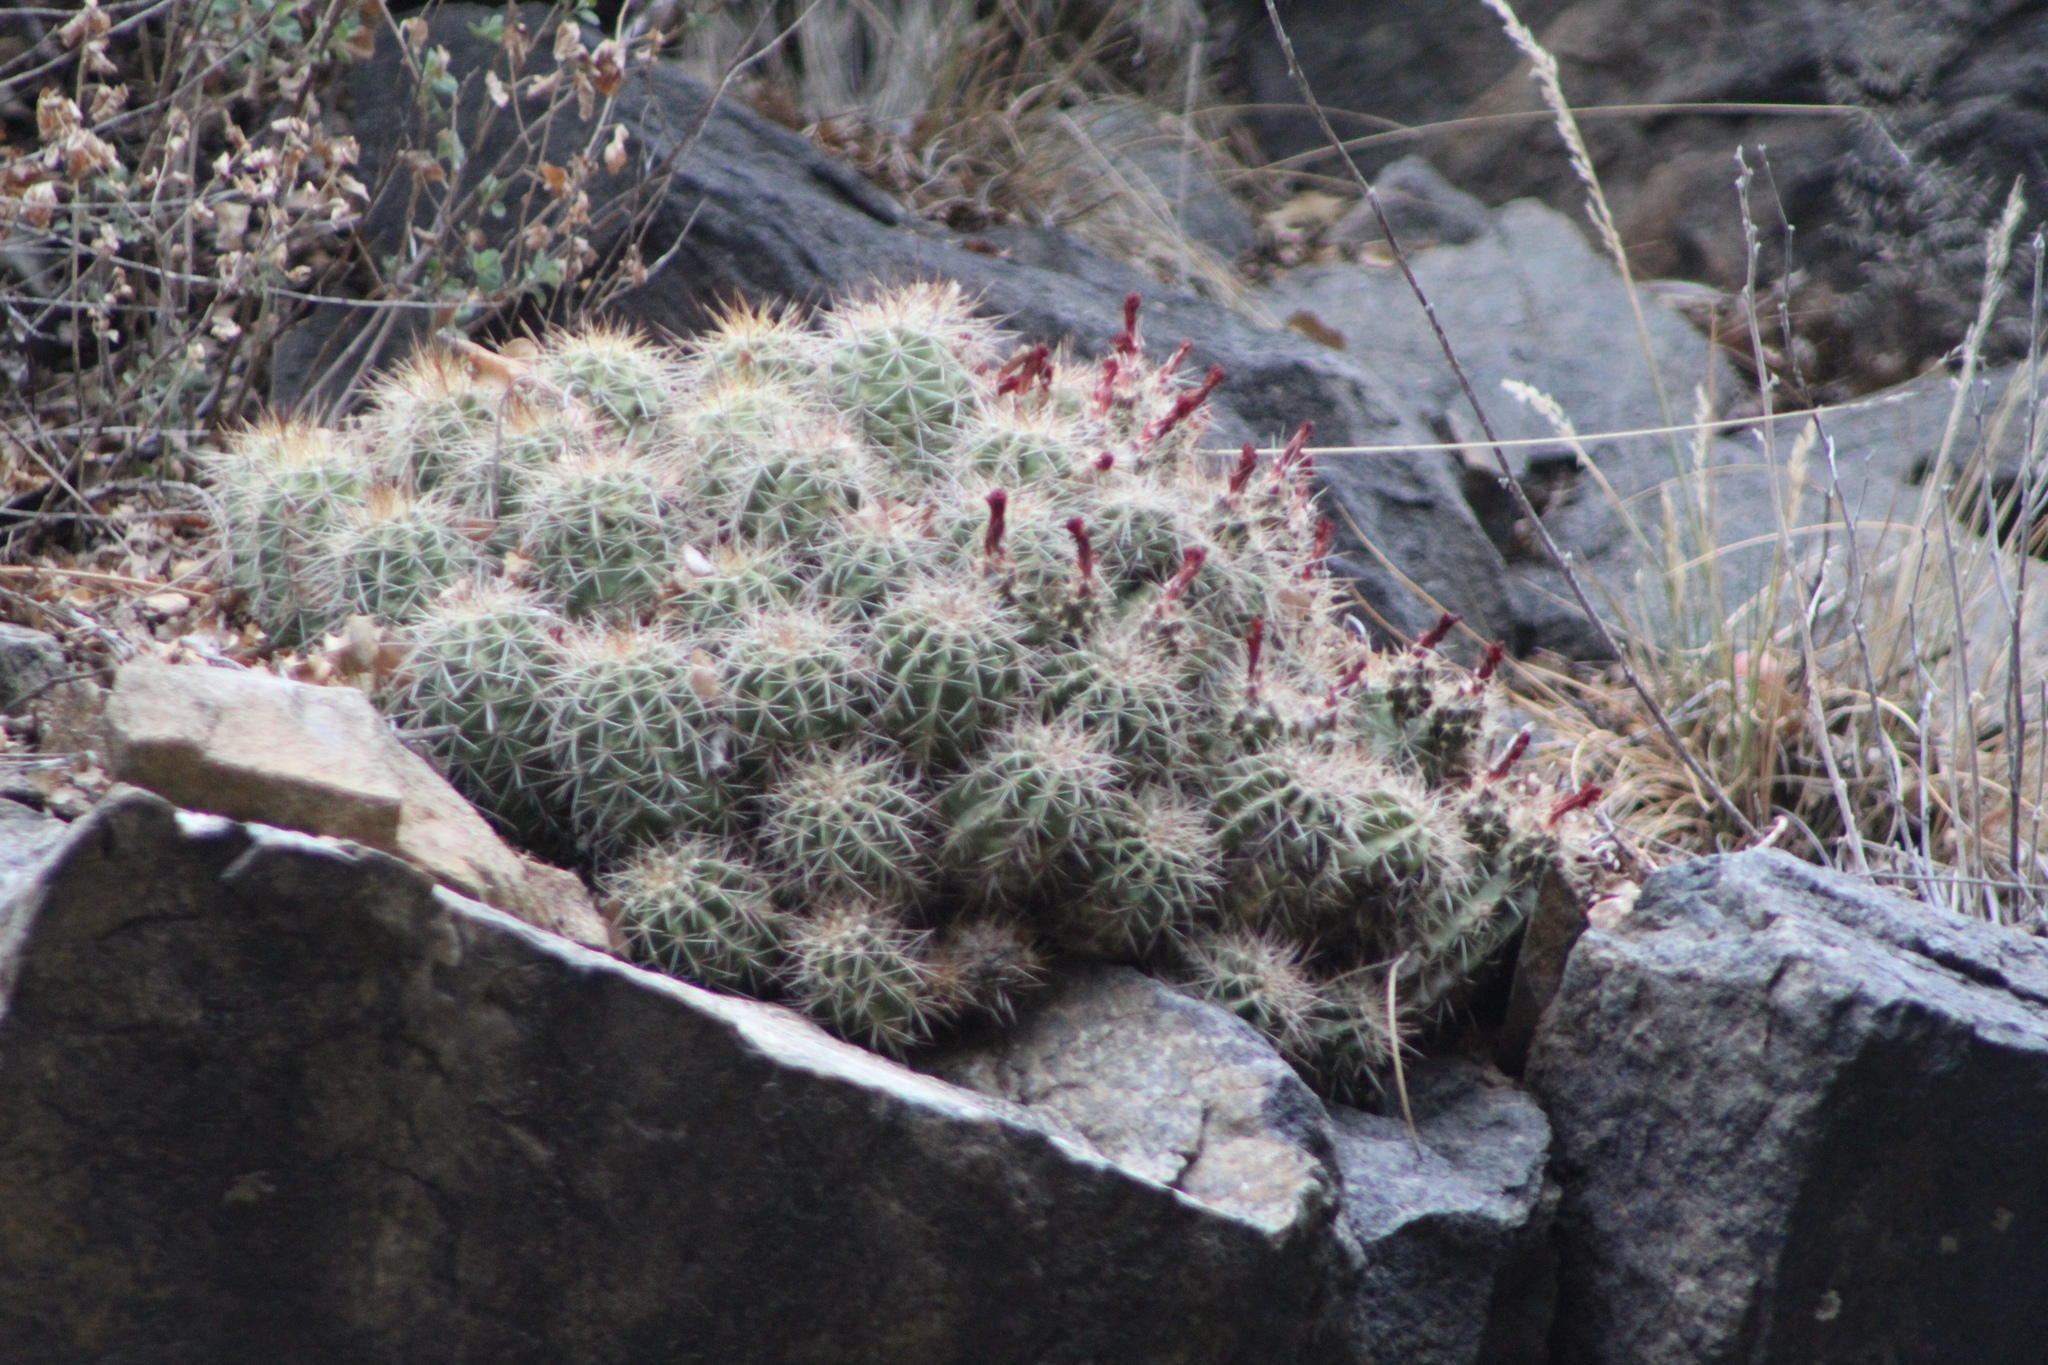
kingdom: Plantae
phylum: Tracheophyta
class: Magnoliopsida
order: Caryophyllales
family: Cactaceae
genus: Echinocereus
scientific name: Echinocereus bakeri
